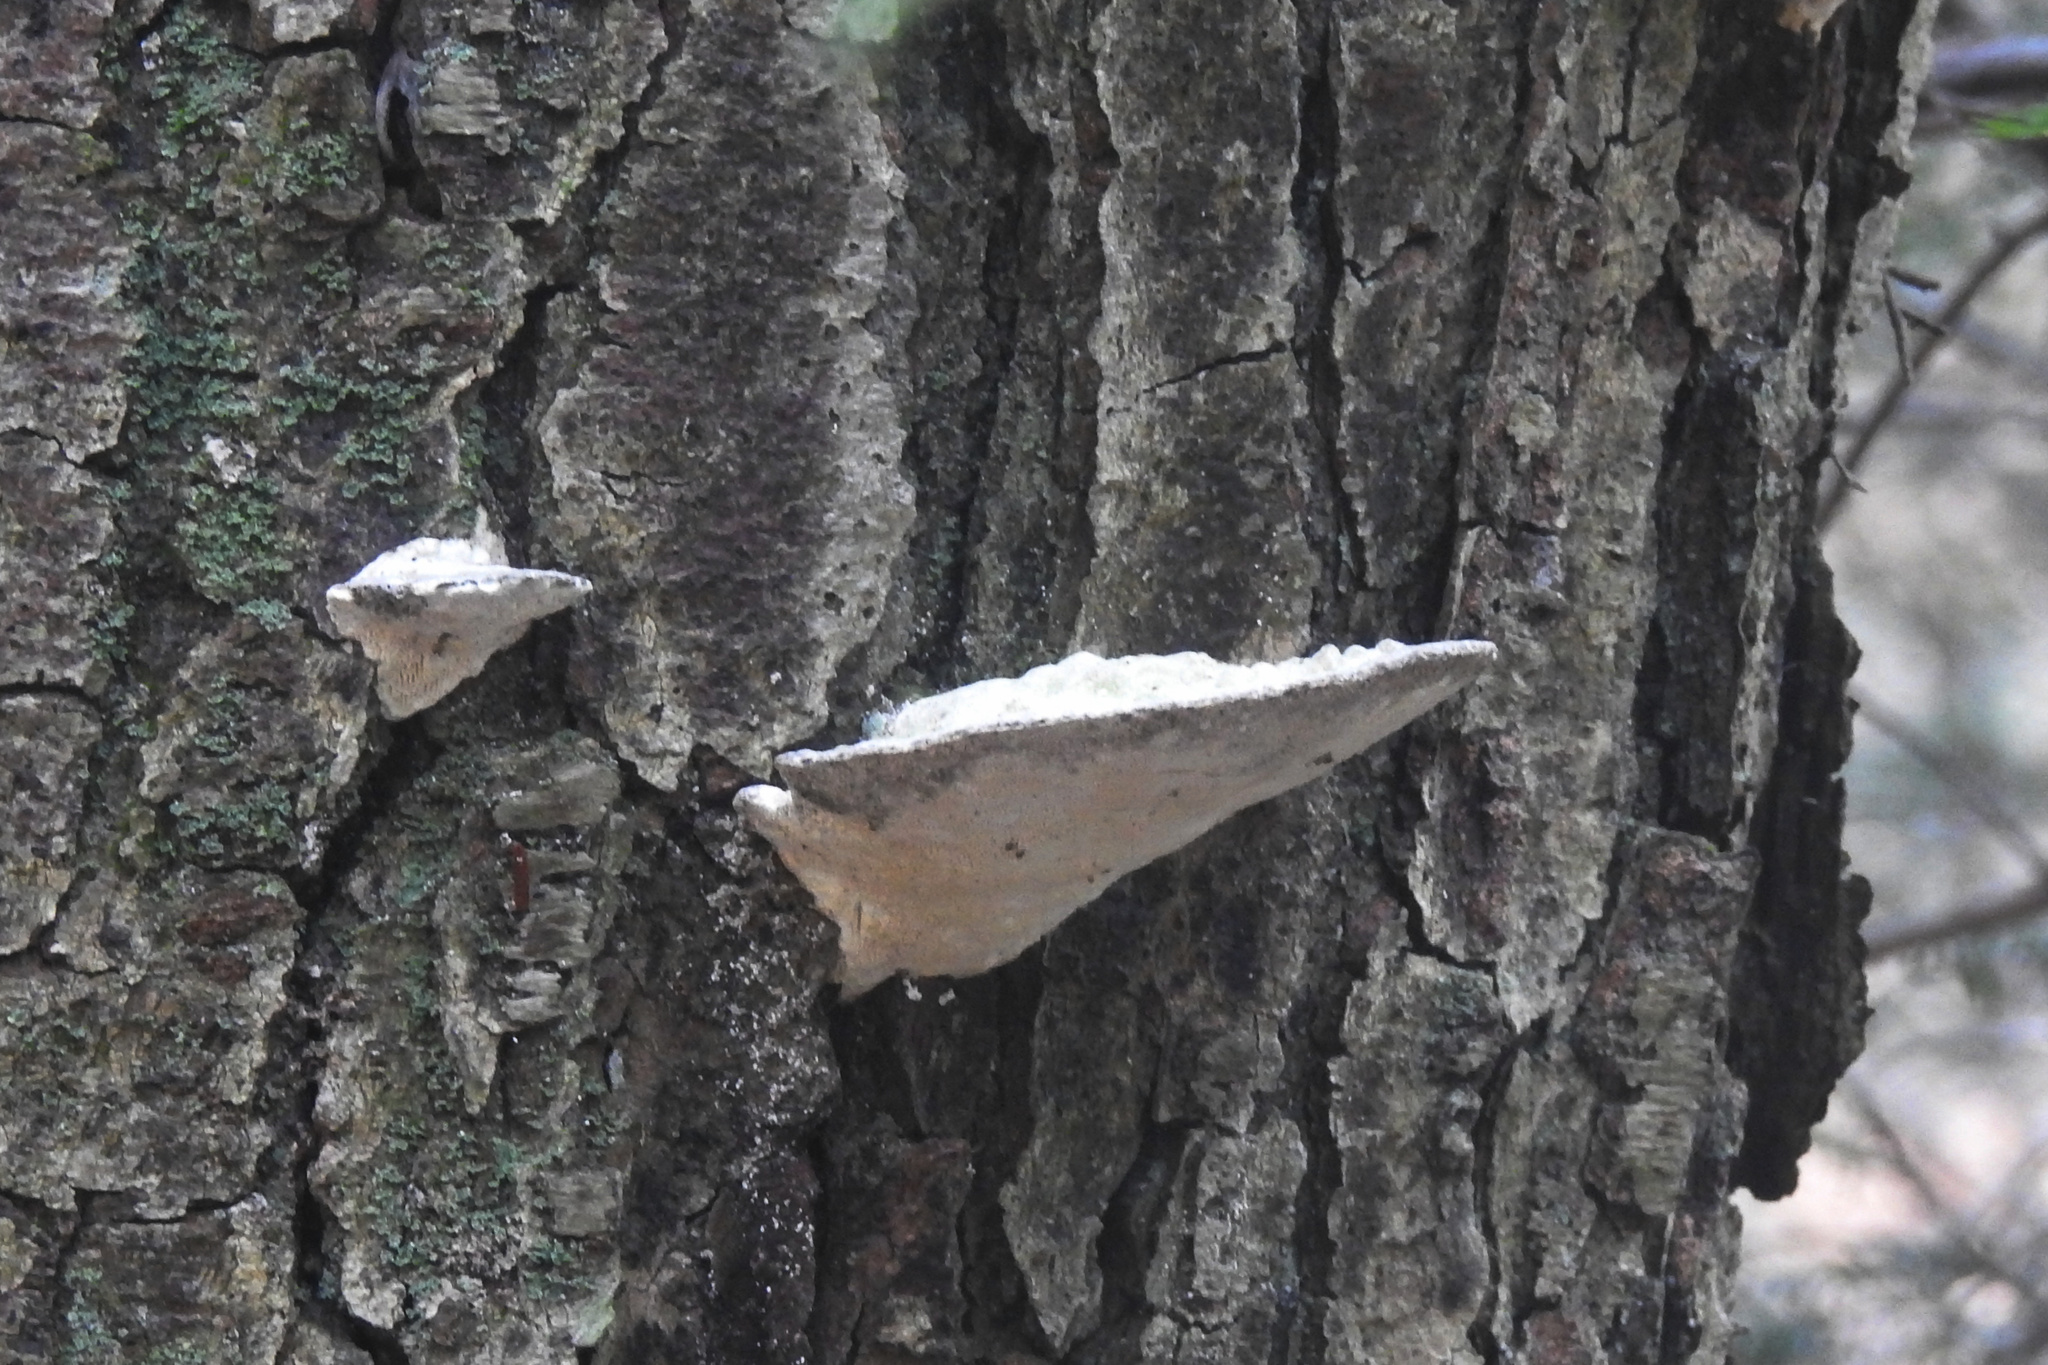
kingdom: Fungi
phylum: Basidiomycota
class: Agaricomycetes
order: Polyporales
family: Polyporaceae
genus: Trametes
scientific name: Trametes gibbosa
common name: Lumpy bracket
